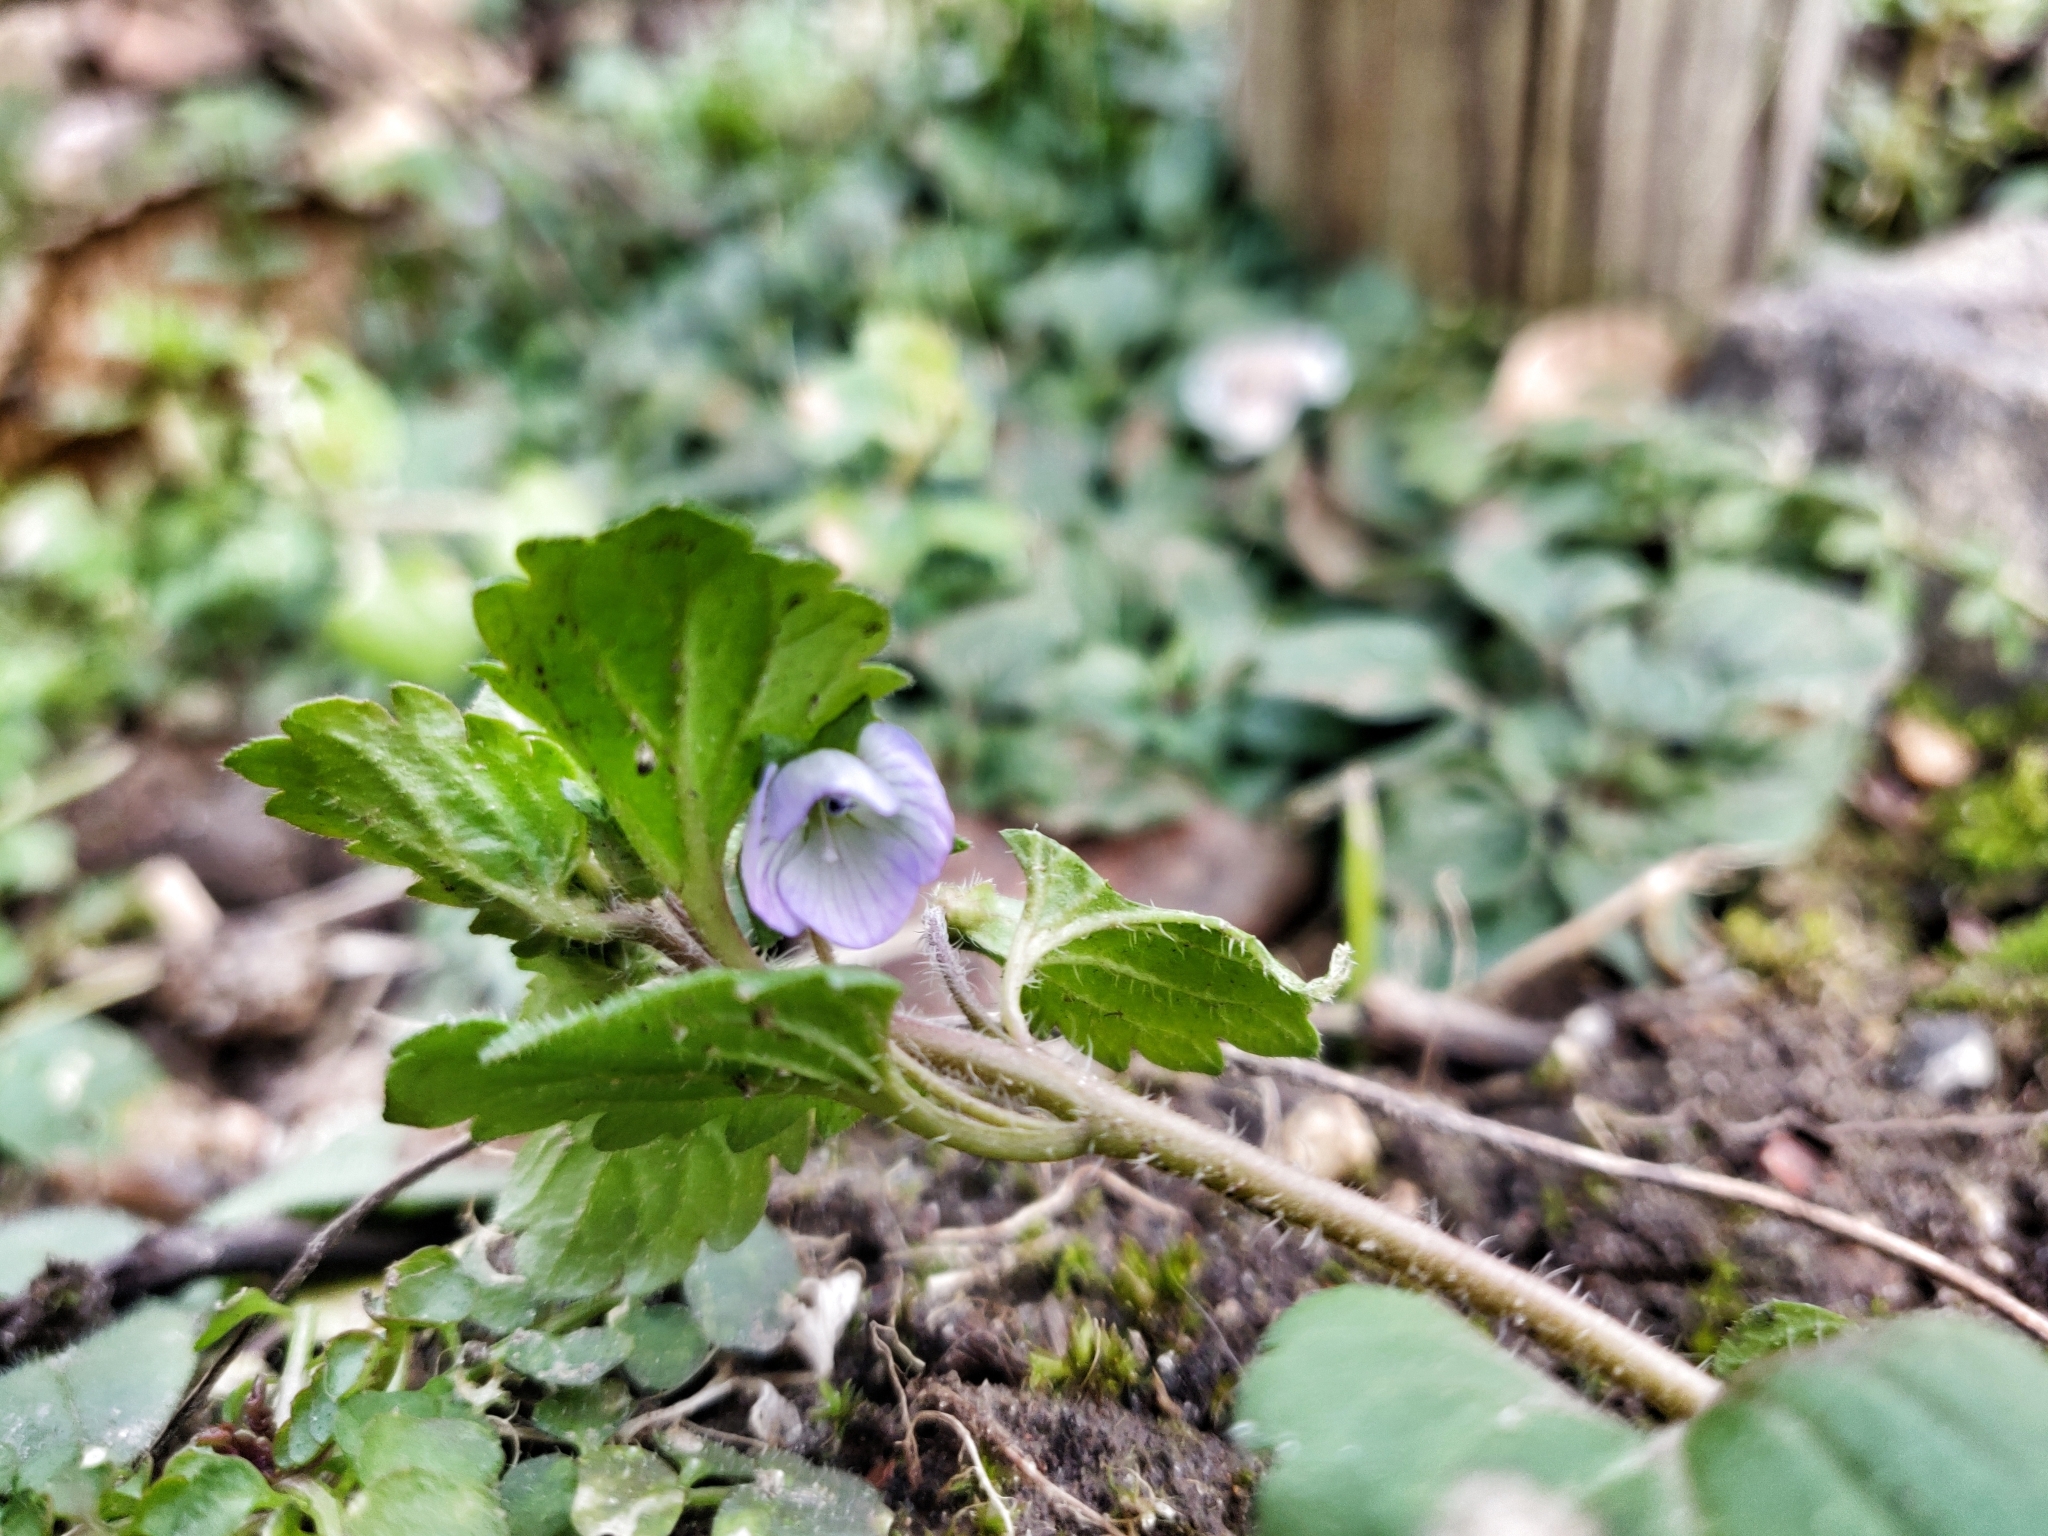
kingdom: Plantae
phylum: Tracheophyta
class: Magnoliopsida
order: Lamiales
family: Plantaginaceae
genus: Veronica
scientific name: Veronica persica
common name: Common field-speedwell
